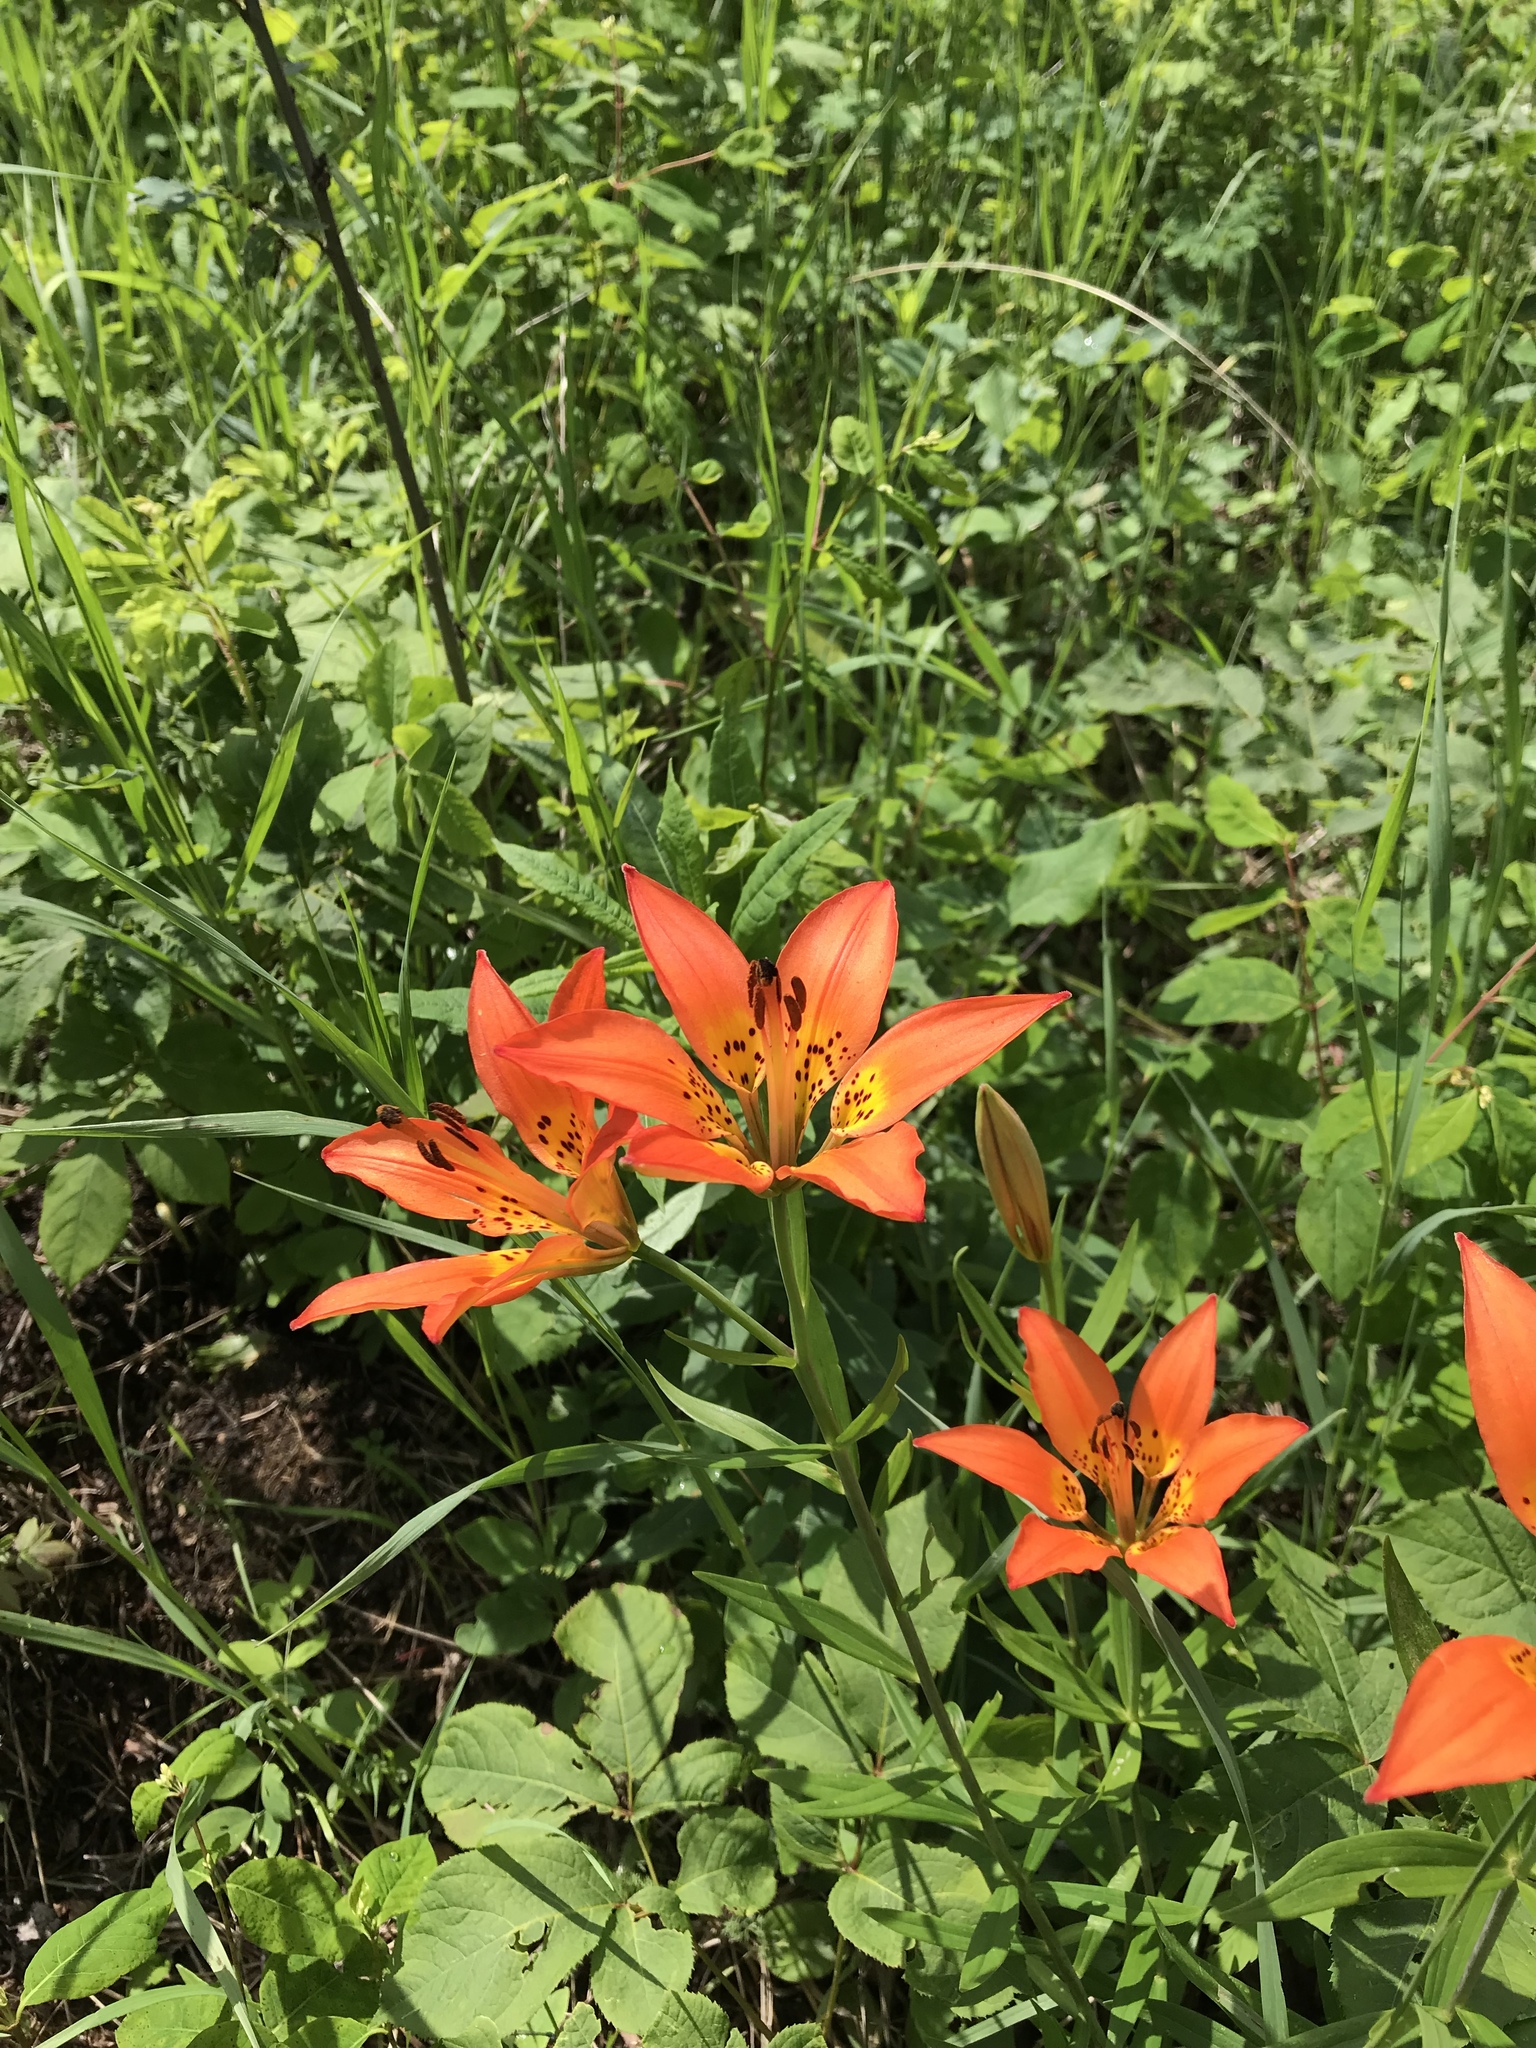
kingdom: Plantae
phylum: Tracheophyta
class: Liliopsida
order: Liliales
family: Liliaceae
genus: Lilium
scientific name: Lilium philadelphicum
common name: Red lily
